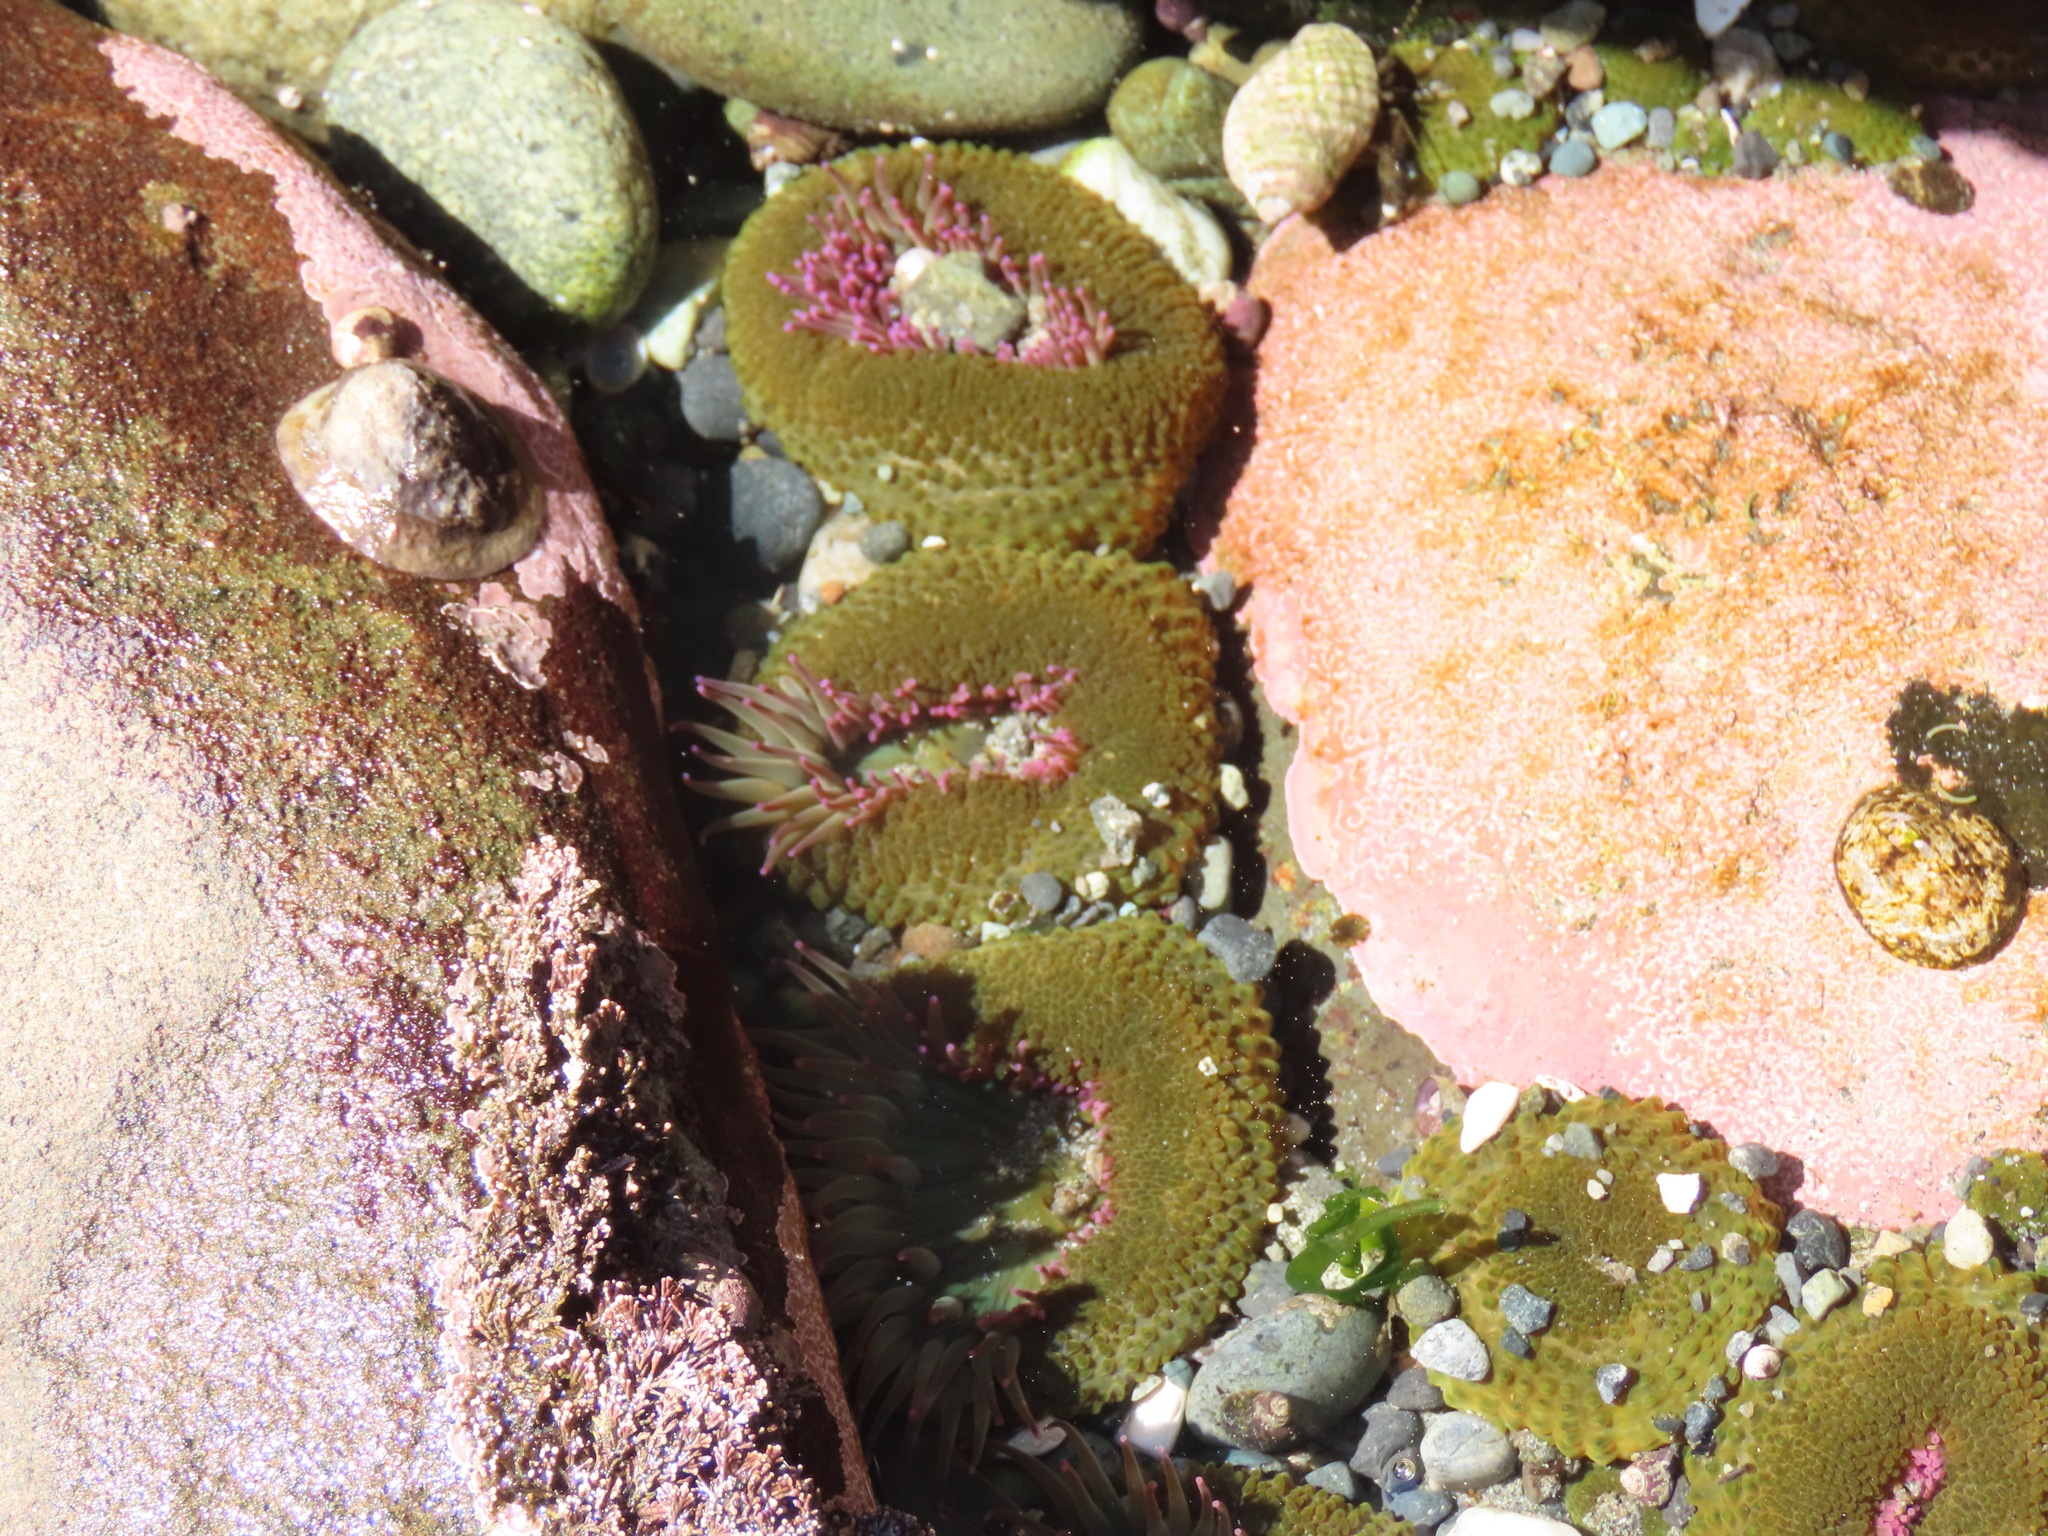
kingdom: Animalia
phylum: Cnidaria
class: Anthozoa
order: Actiniaria
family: Actiniidae
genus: Anthopleura
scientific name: Anthopleura elegantissima
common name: Clonal anemone
